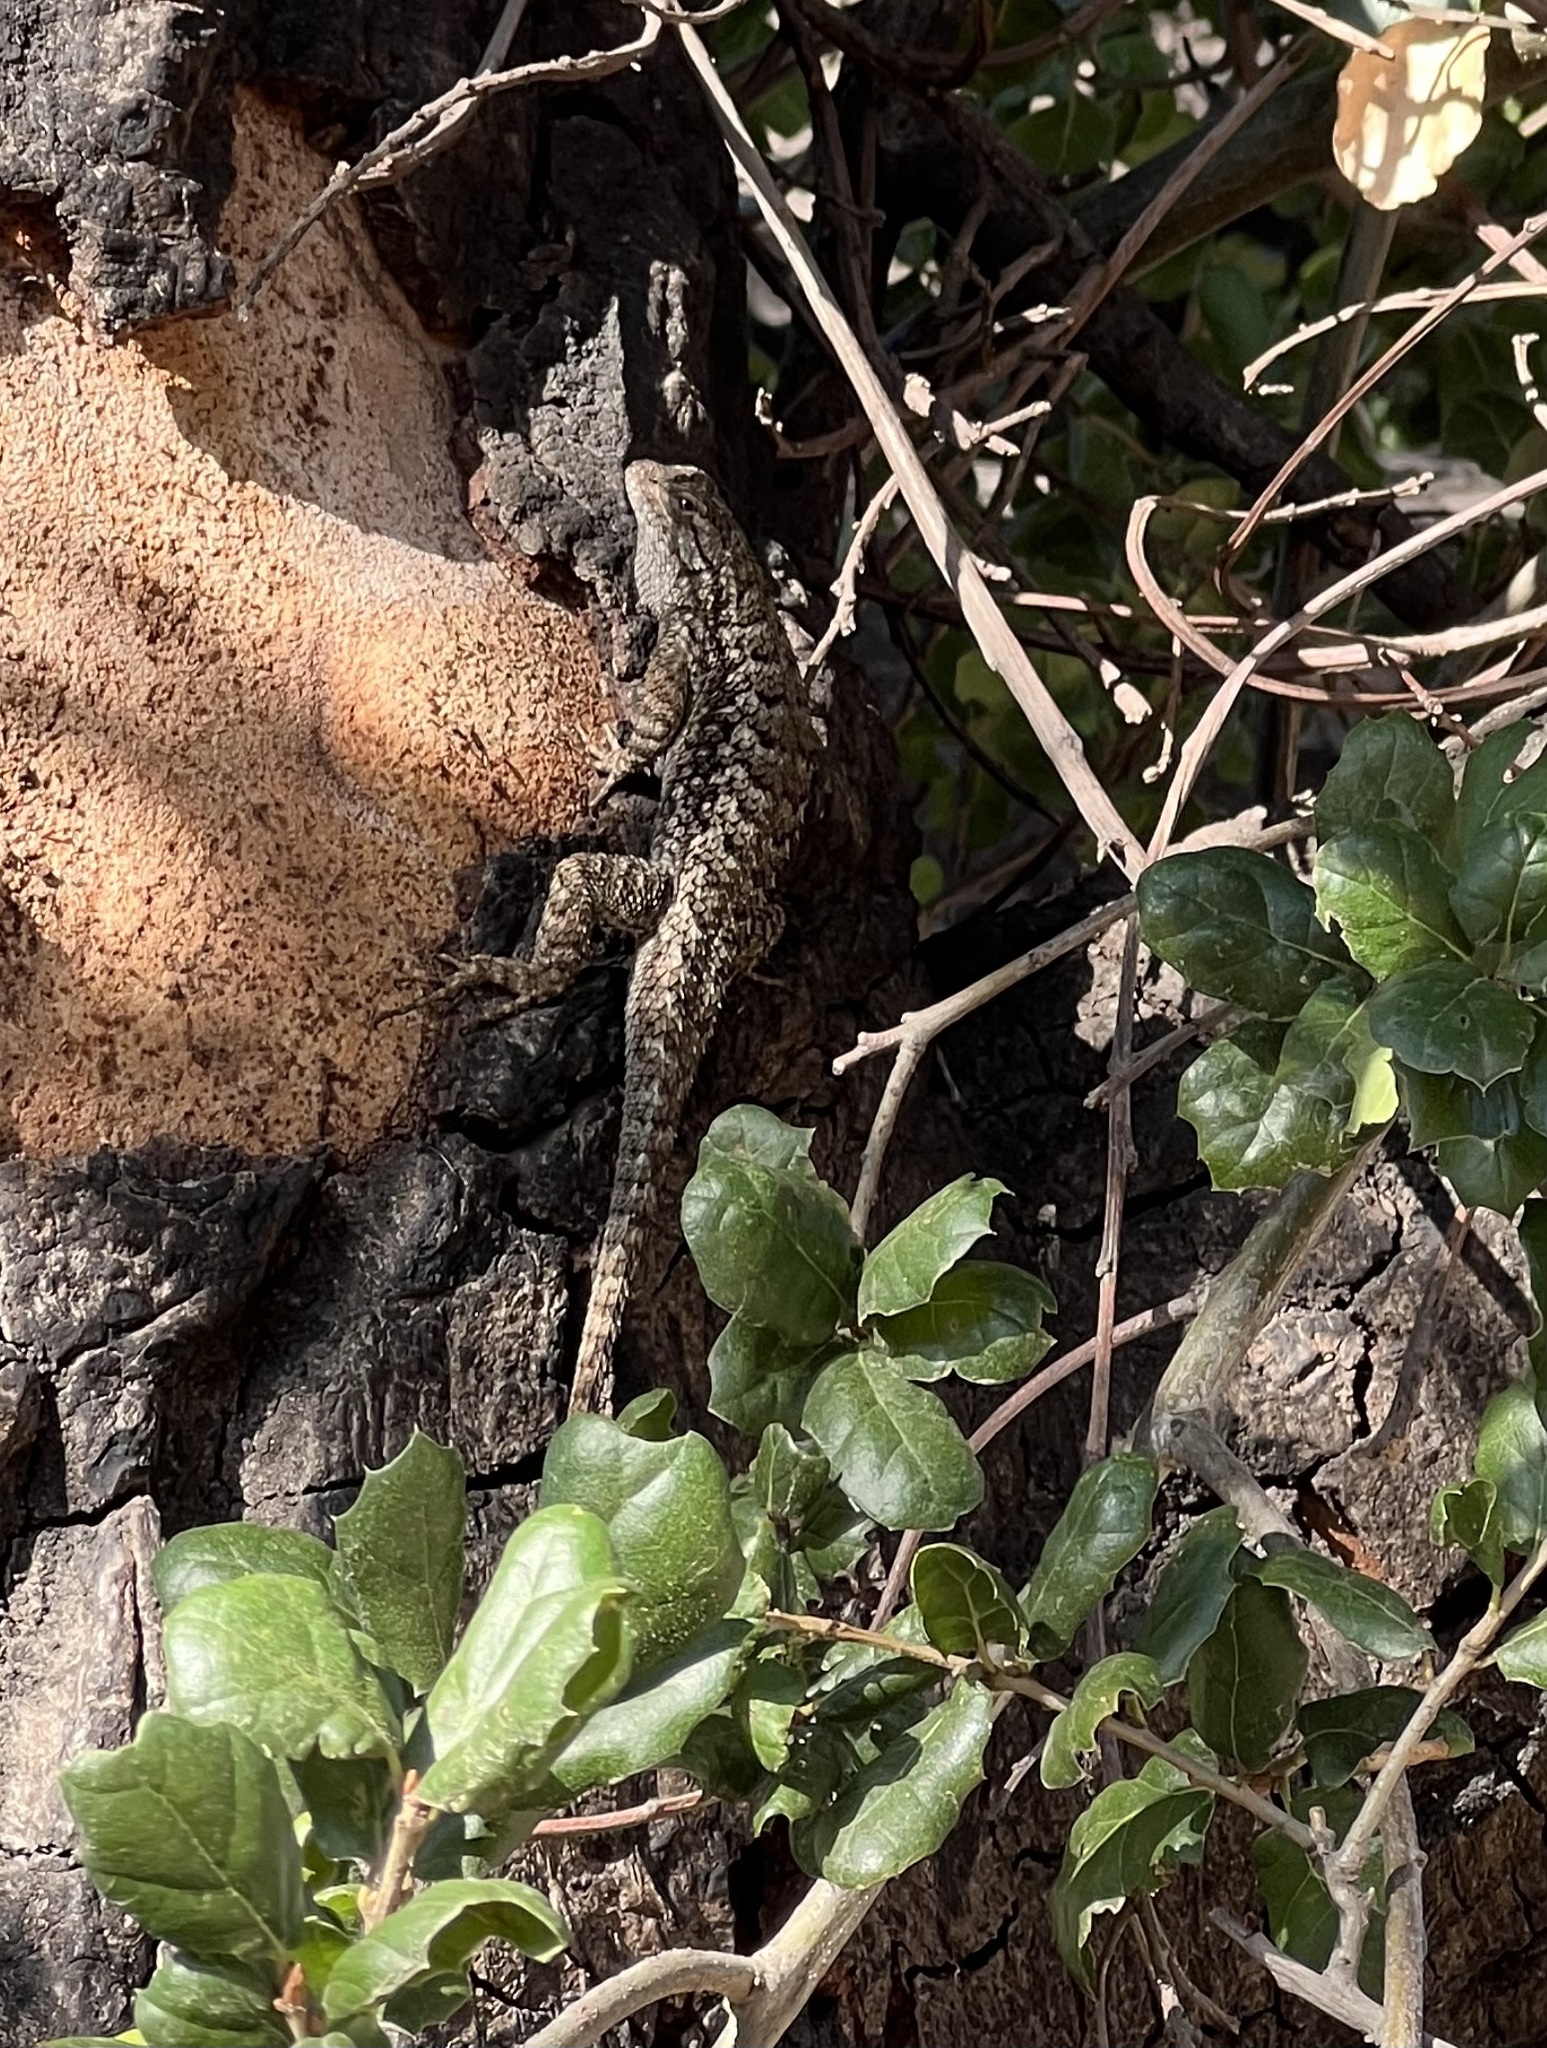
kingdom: Animalia
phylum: Chordata
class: Squamata
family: Phrynosomatidae
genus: Sceloporus
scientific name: Sceloporus occidentalis
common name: Western fence lizard
